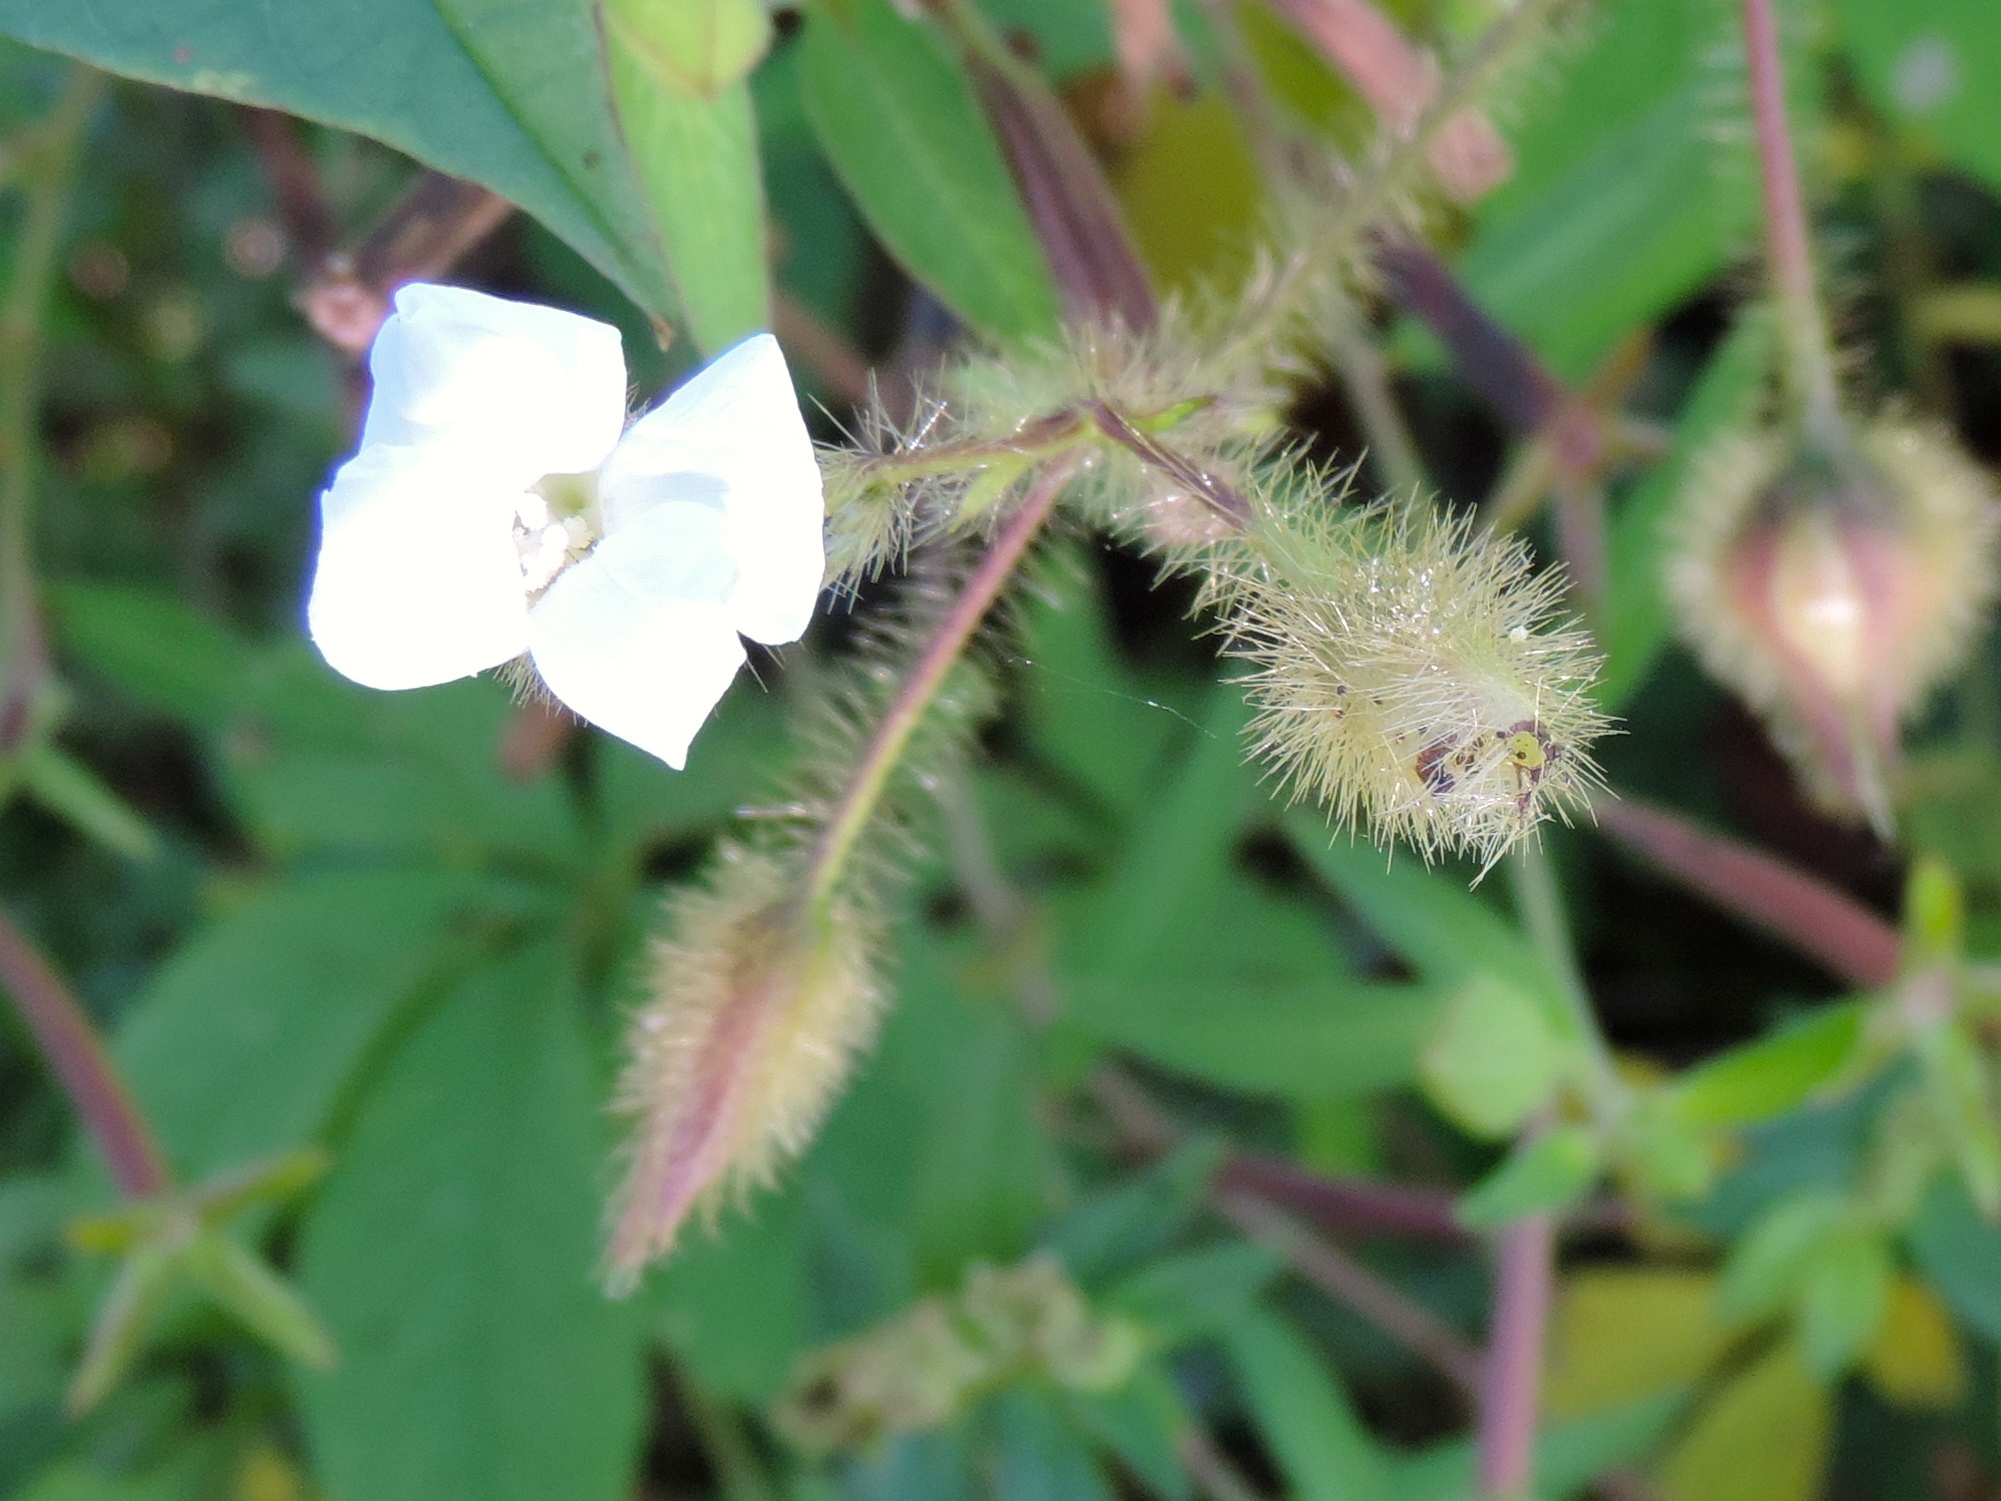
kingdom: Plantae
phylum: Tracheophyta
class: Magnoliopsida
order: Solanales
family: Convolvulaceae
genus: Distimake
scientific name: Distimake aegyptius
